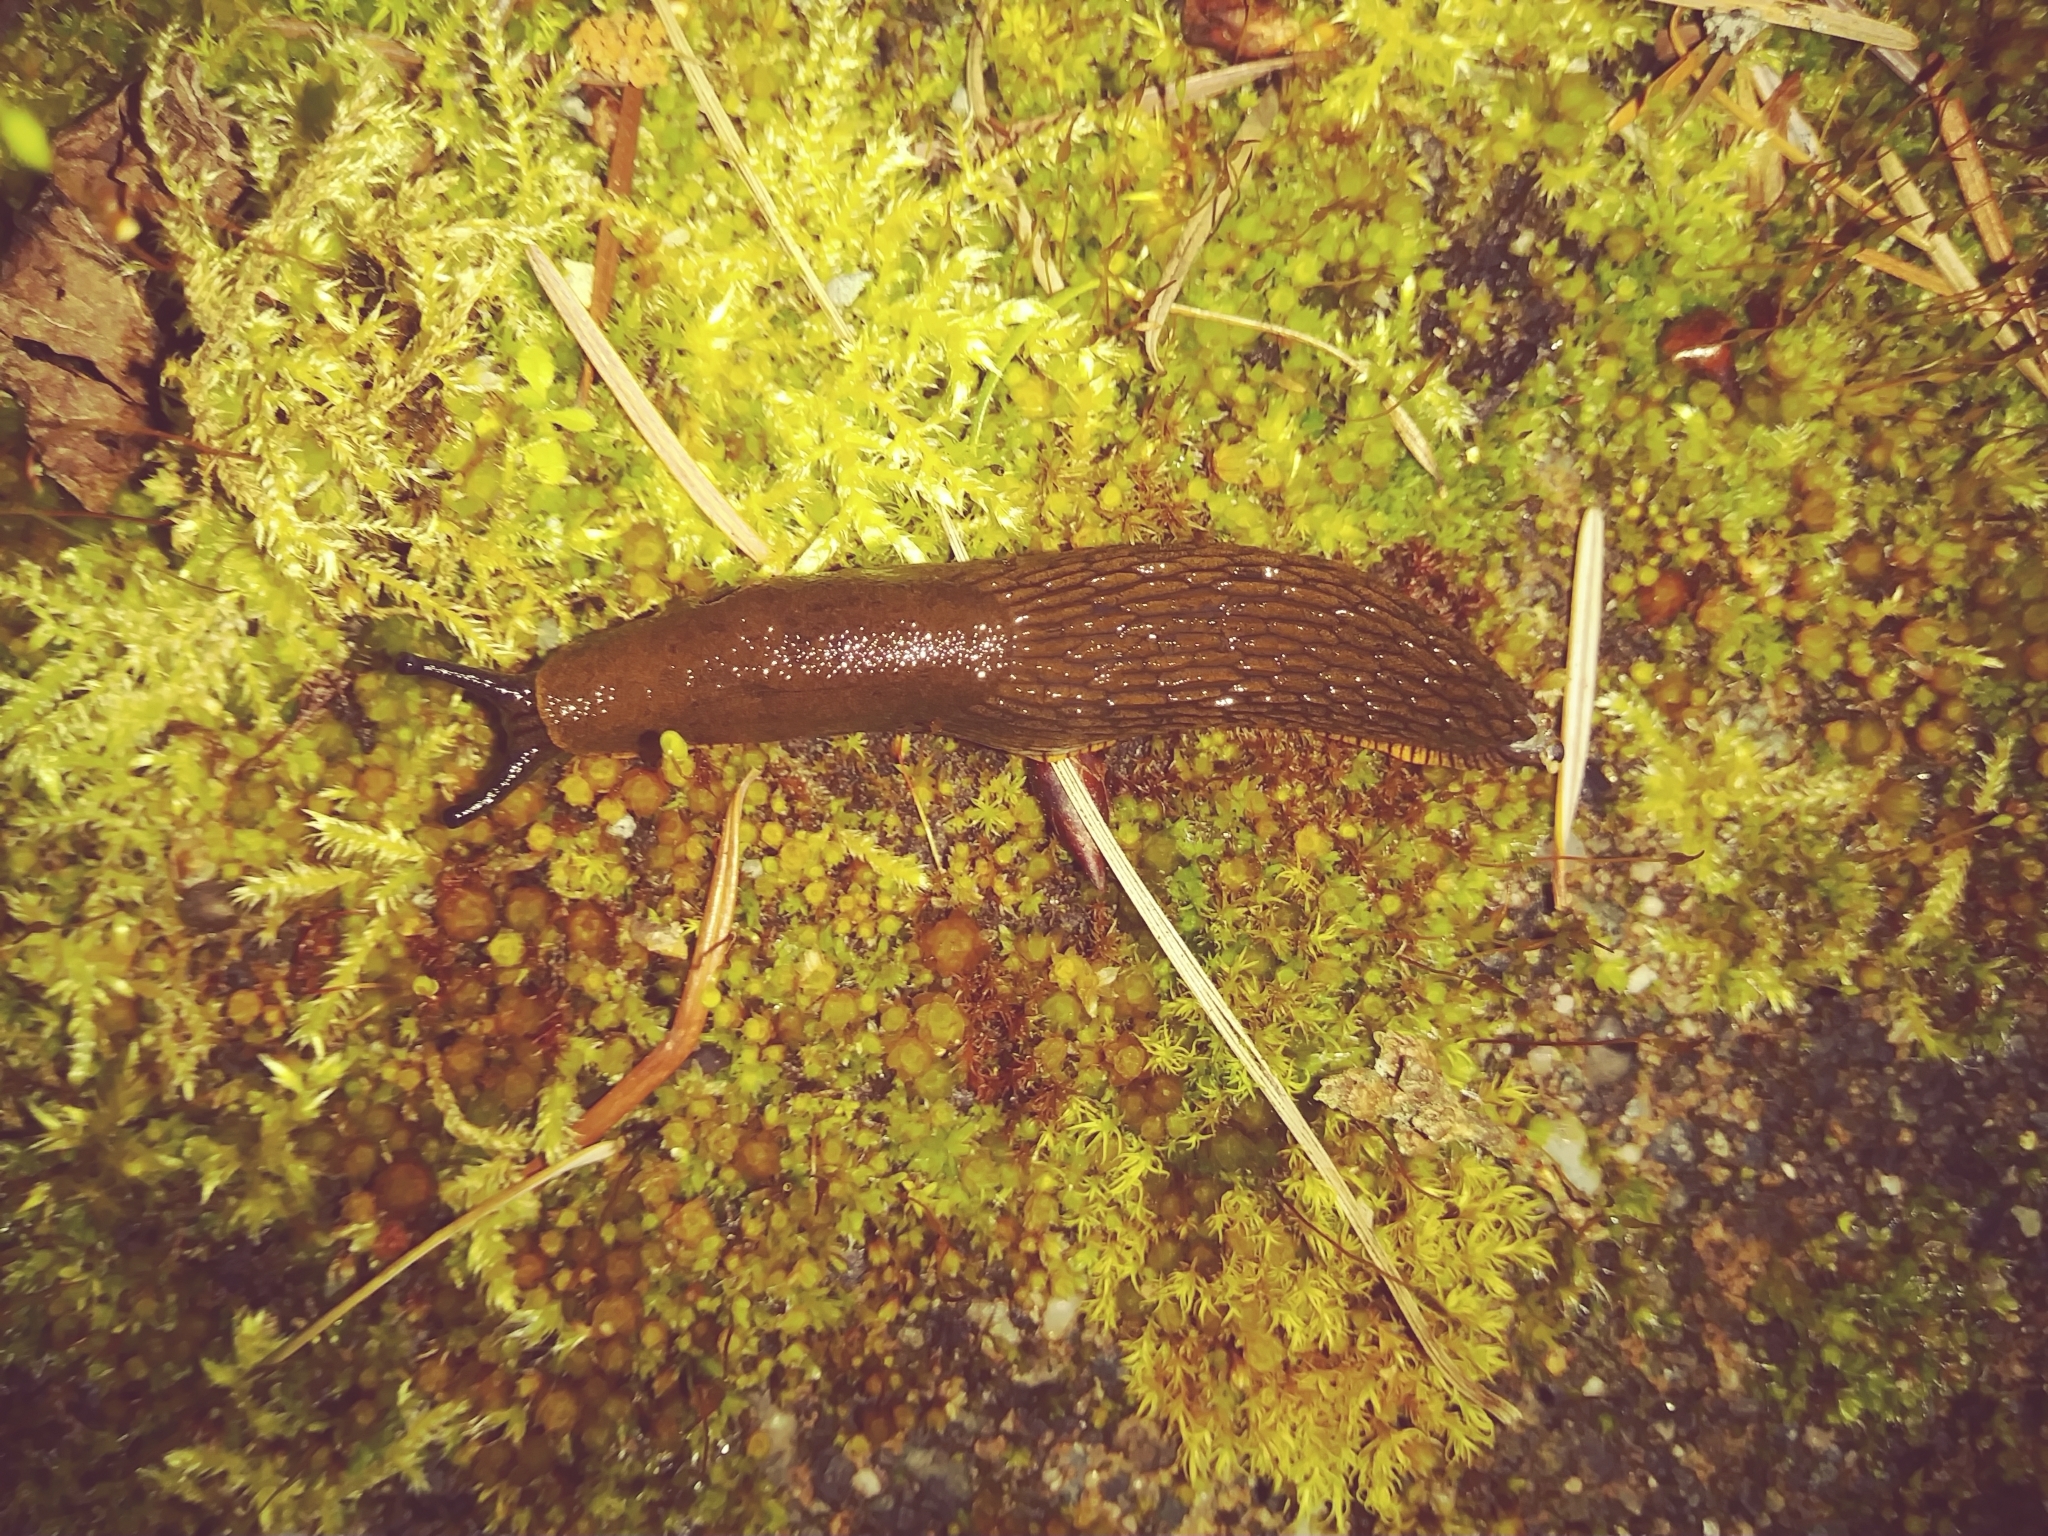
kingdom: Animalia
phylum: Mollusca
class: Gastropoda
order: Stylommatophora
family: Arionidae
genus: Arion
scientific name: Arion rufus
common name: Chocolate arion
